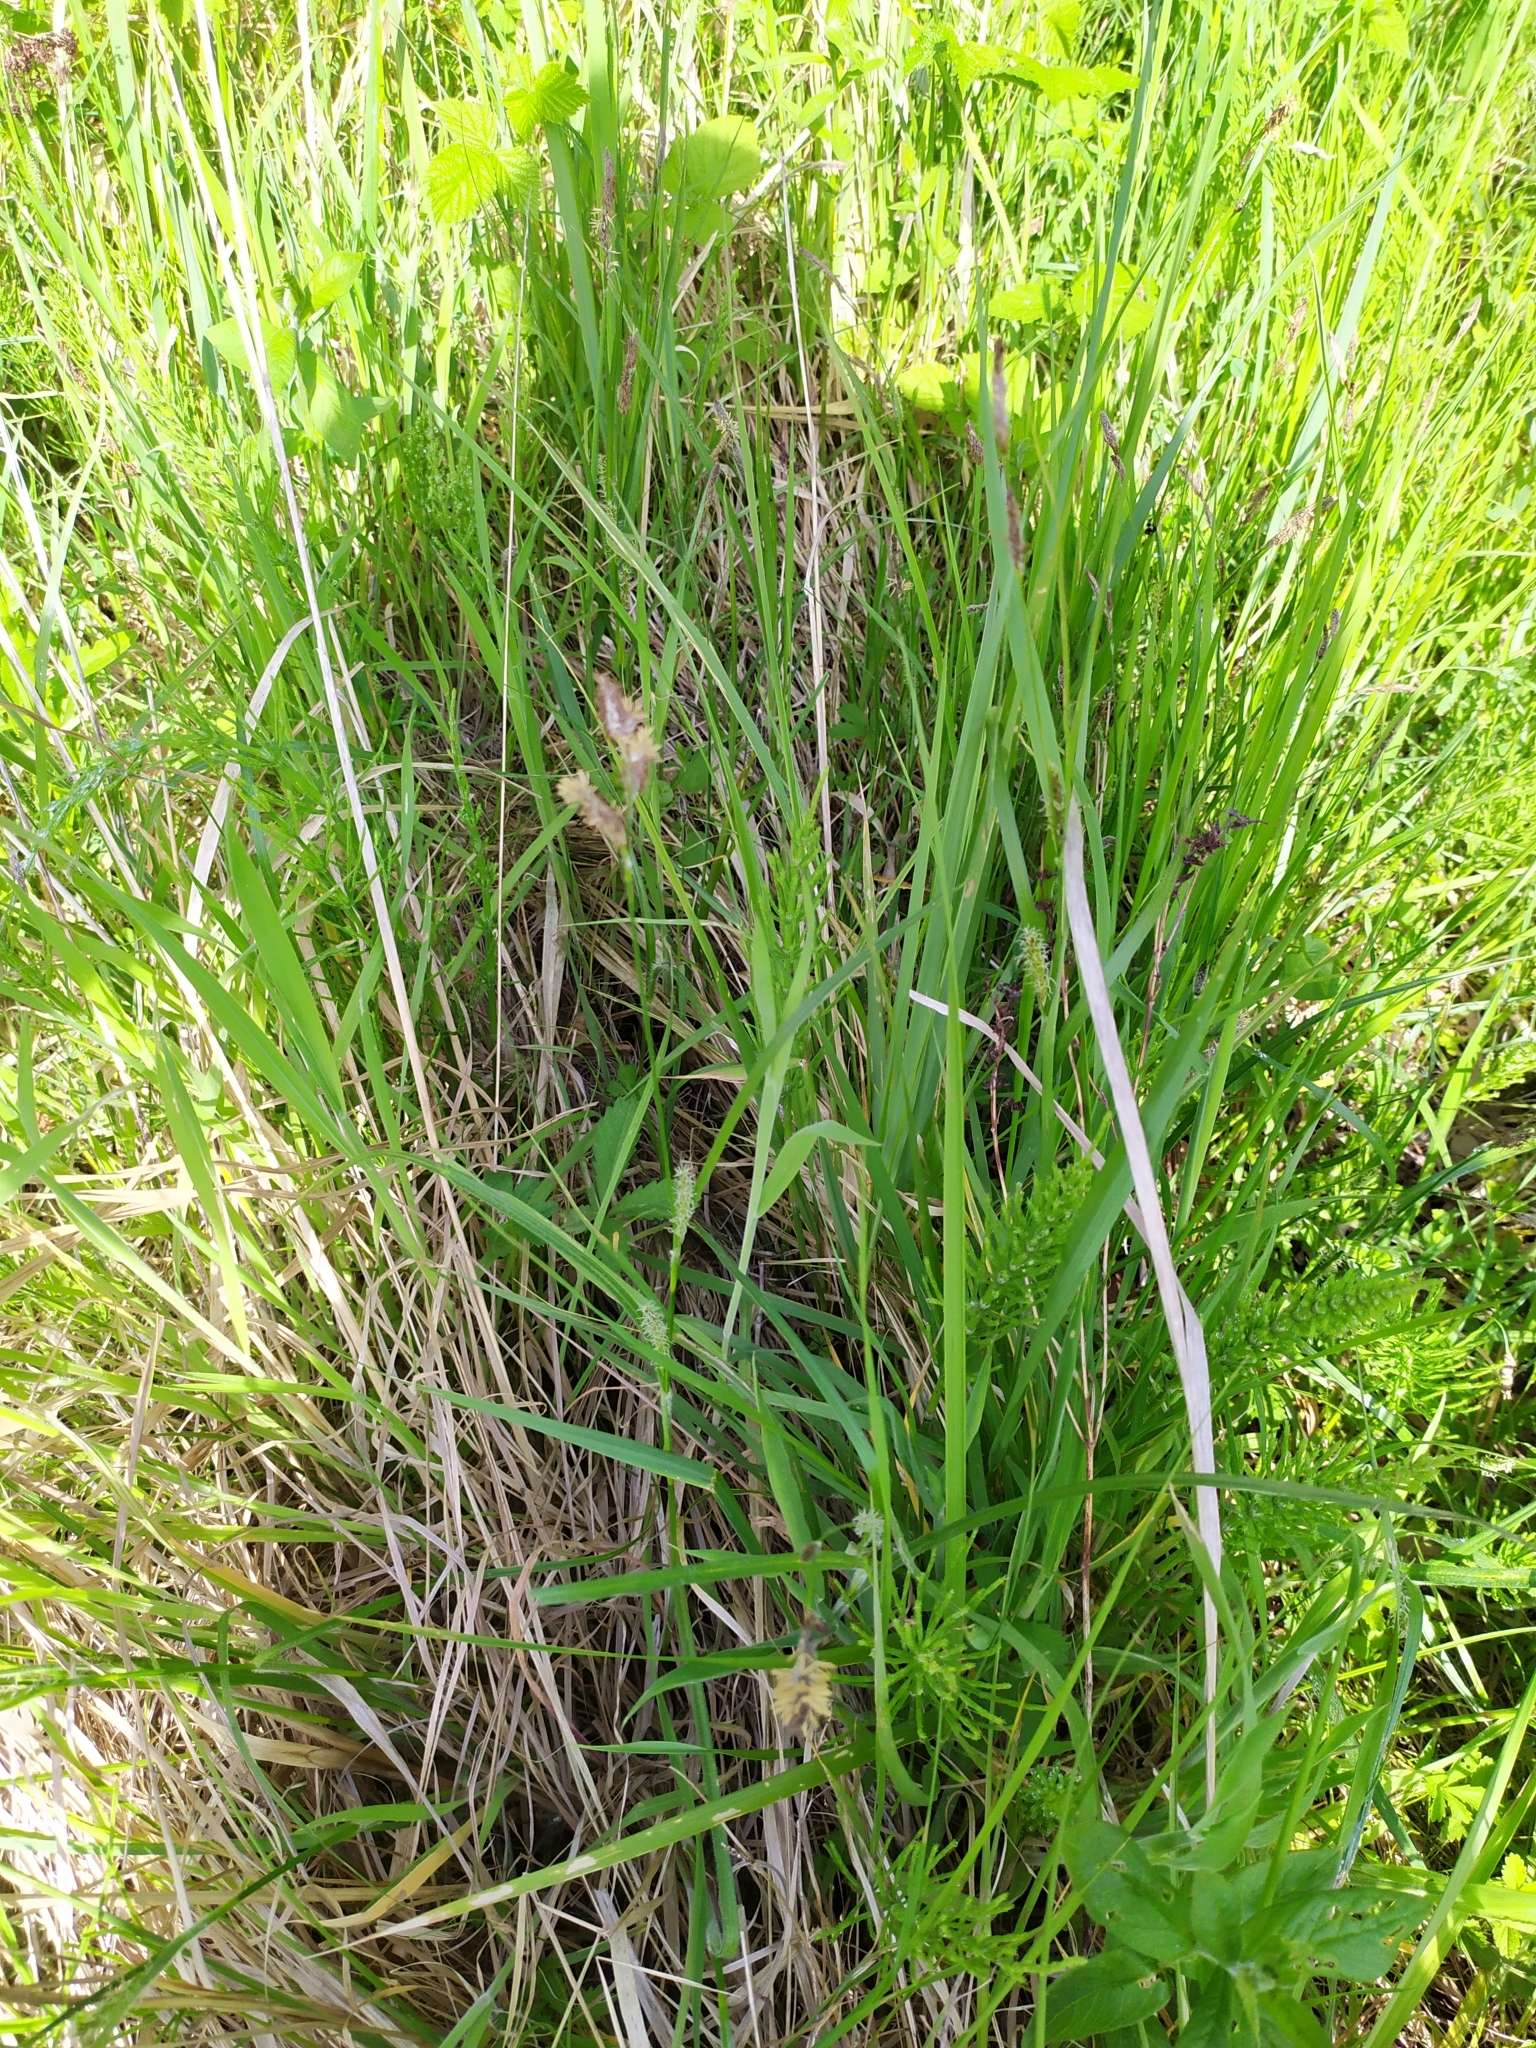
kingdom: Plantae
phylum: Tracheophyta
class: Liliopsida
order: Poales
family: Cyperaceae
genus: Carex
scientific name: Carex hirta
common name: Hairy sedge
